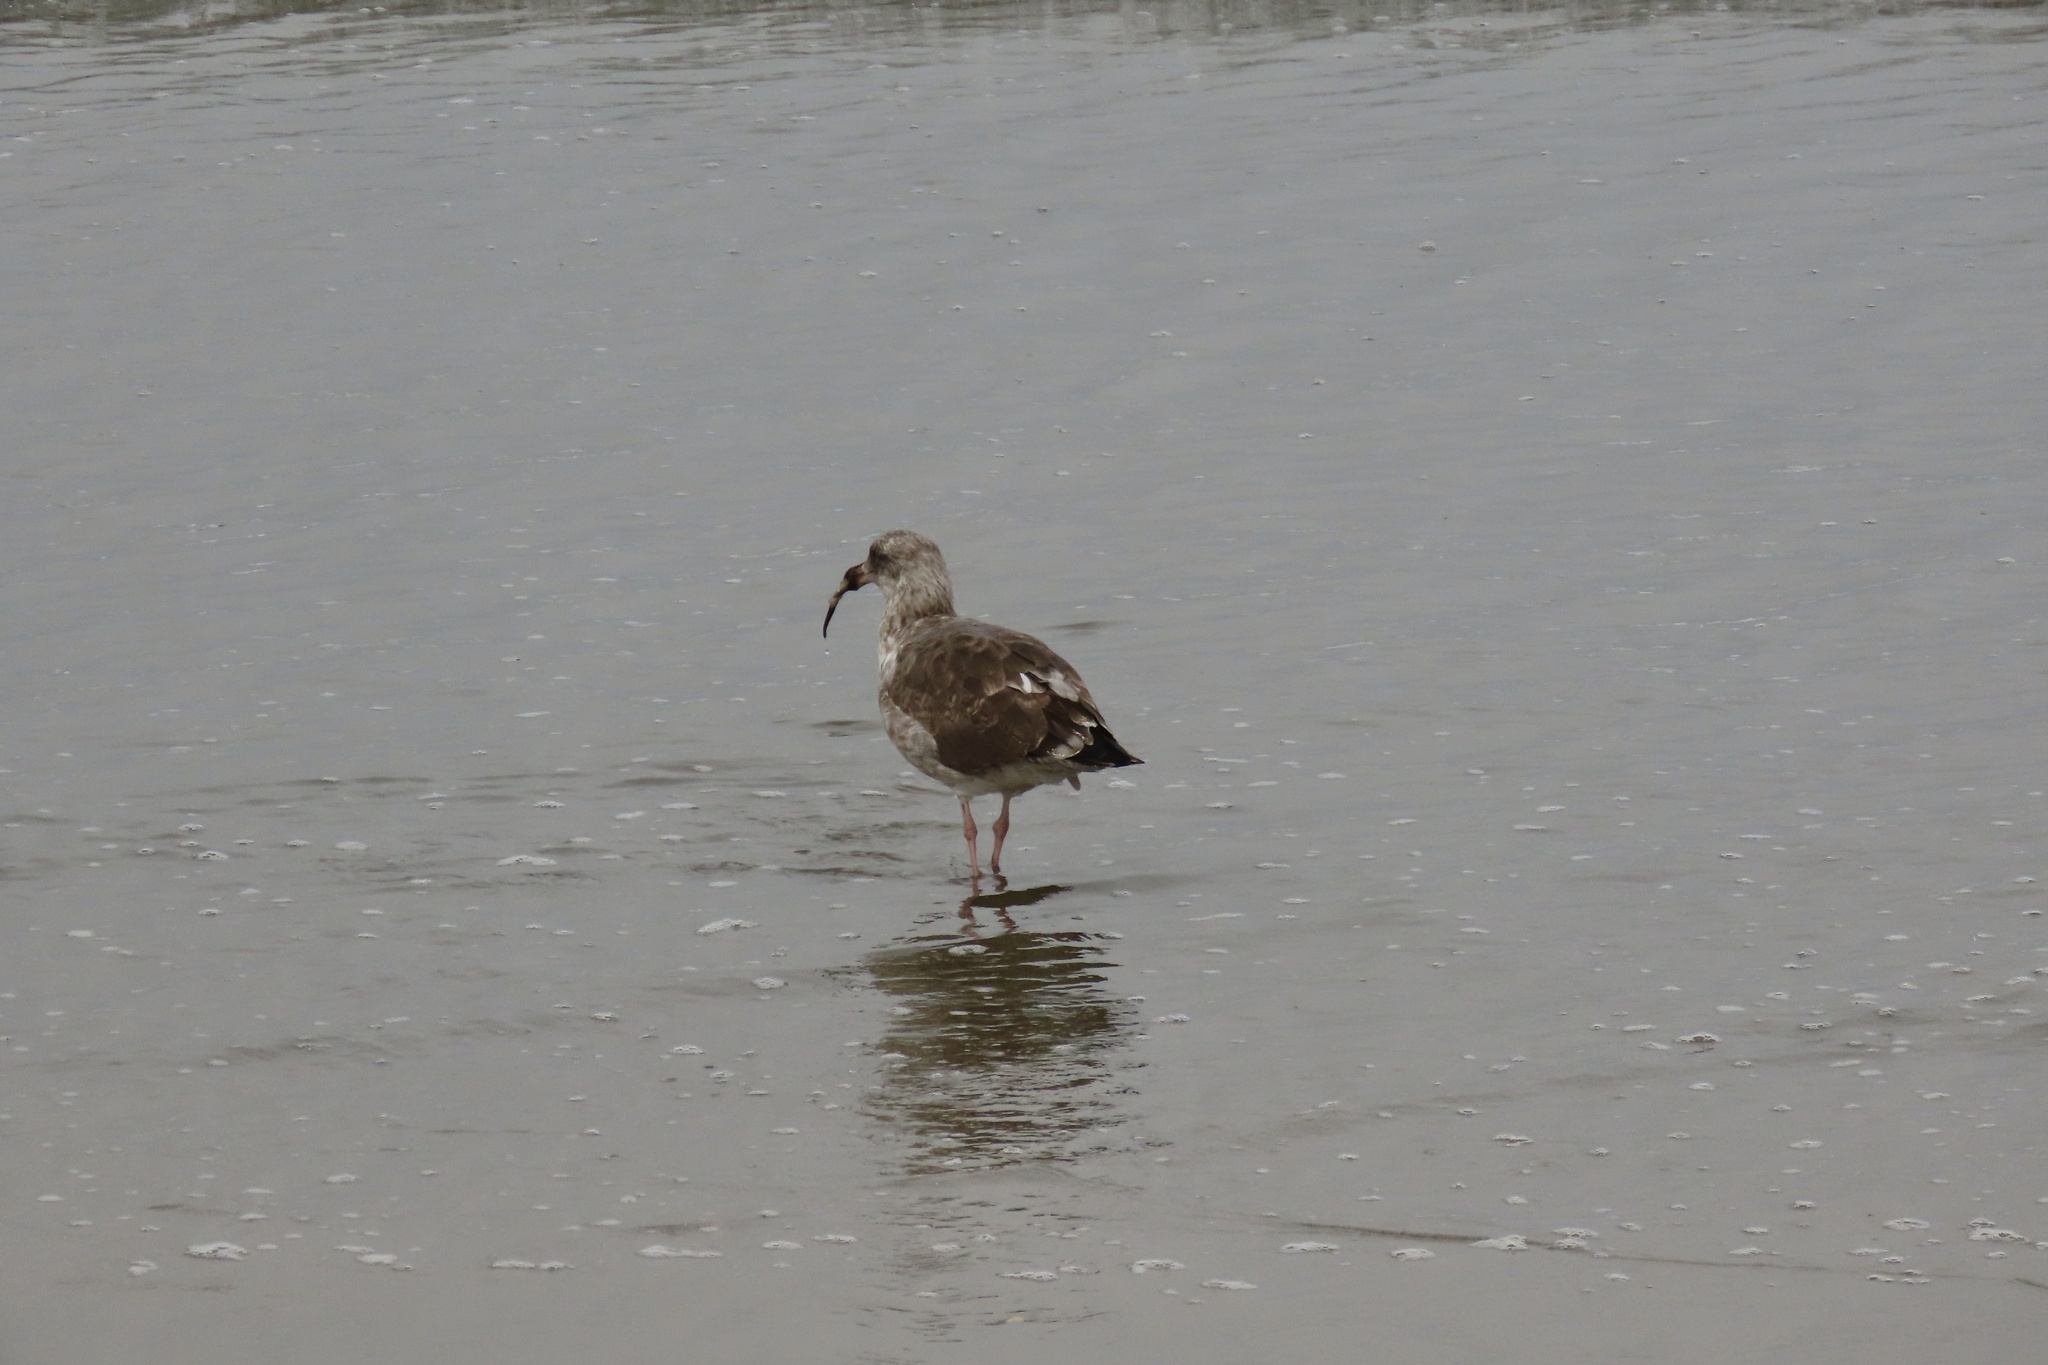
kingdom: Animalia
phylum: Chordata
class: Aves
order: Charadriiformes
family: Laridae
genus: Larus
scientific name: Larus occidentalis
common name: Western gull
